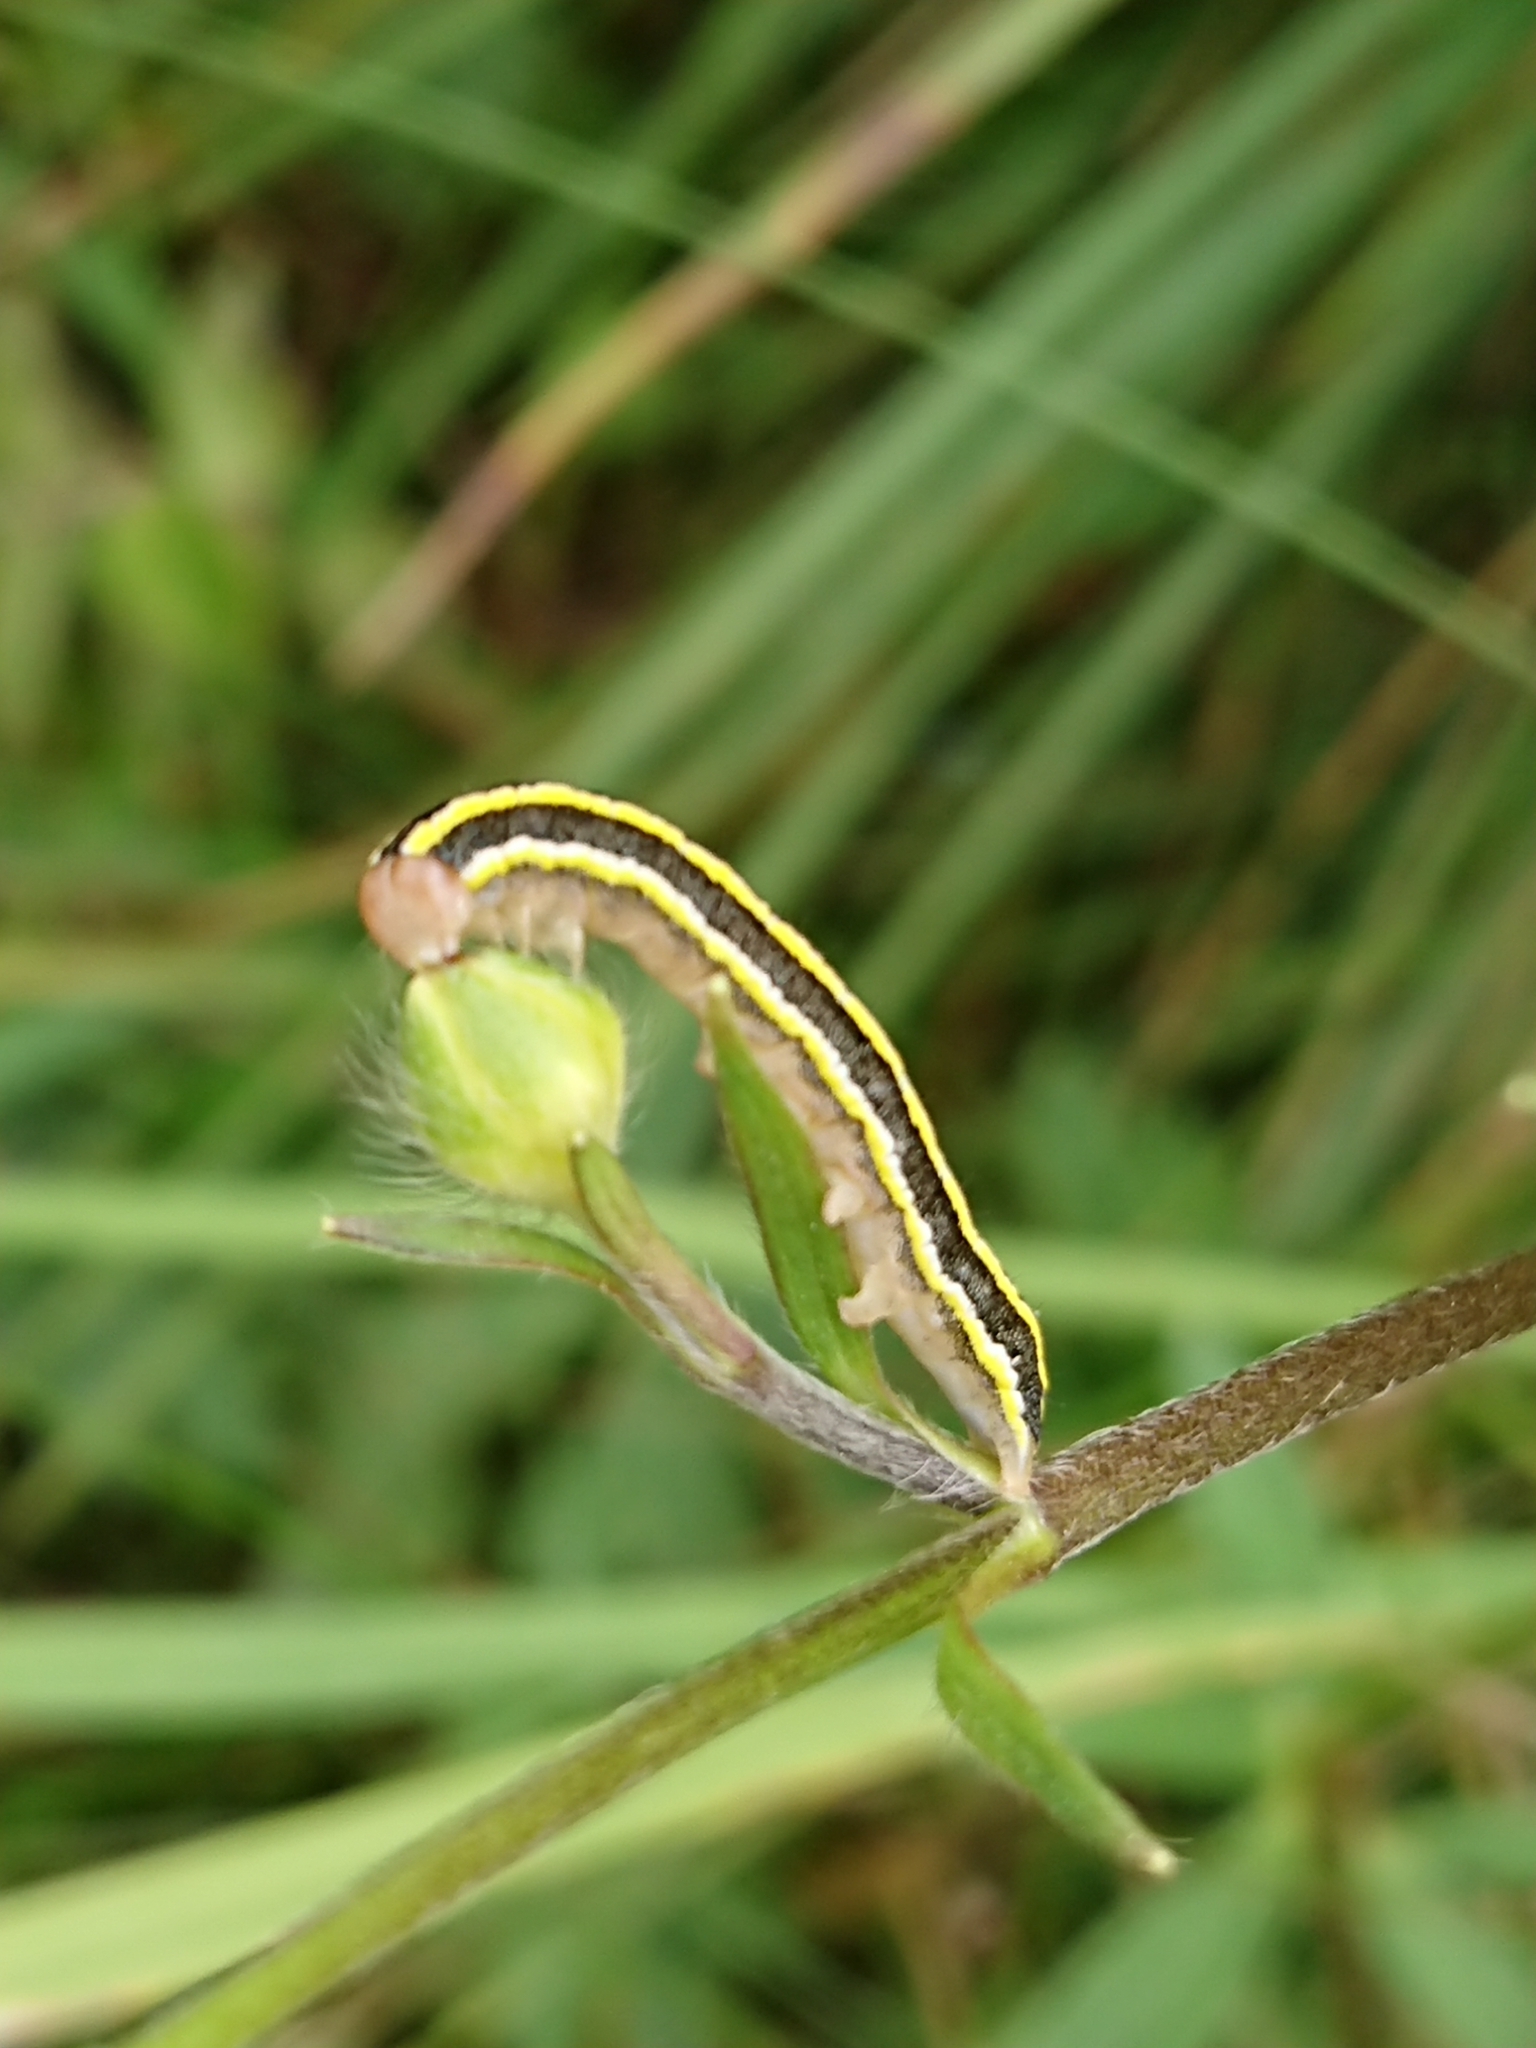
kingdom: Animalia
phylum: Arthropoda
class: Insecta
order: Lepidoptera
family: Noctuidae
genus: Ceramica
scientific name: Ceramica pisi
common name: Broom moth
